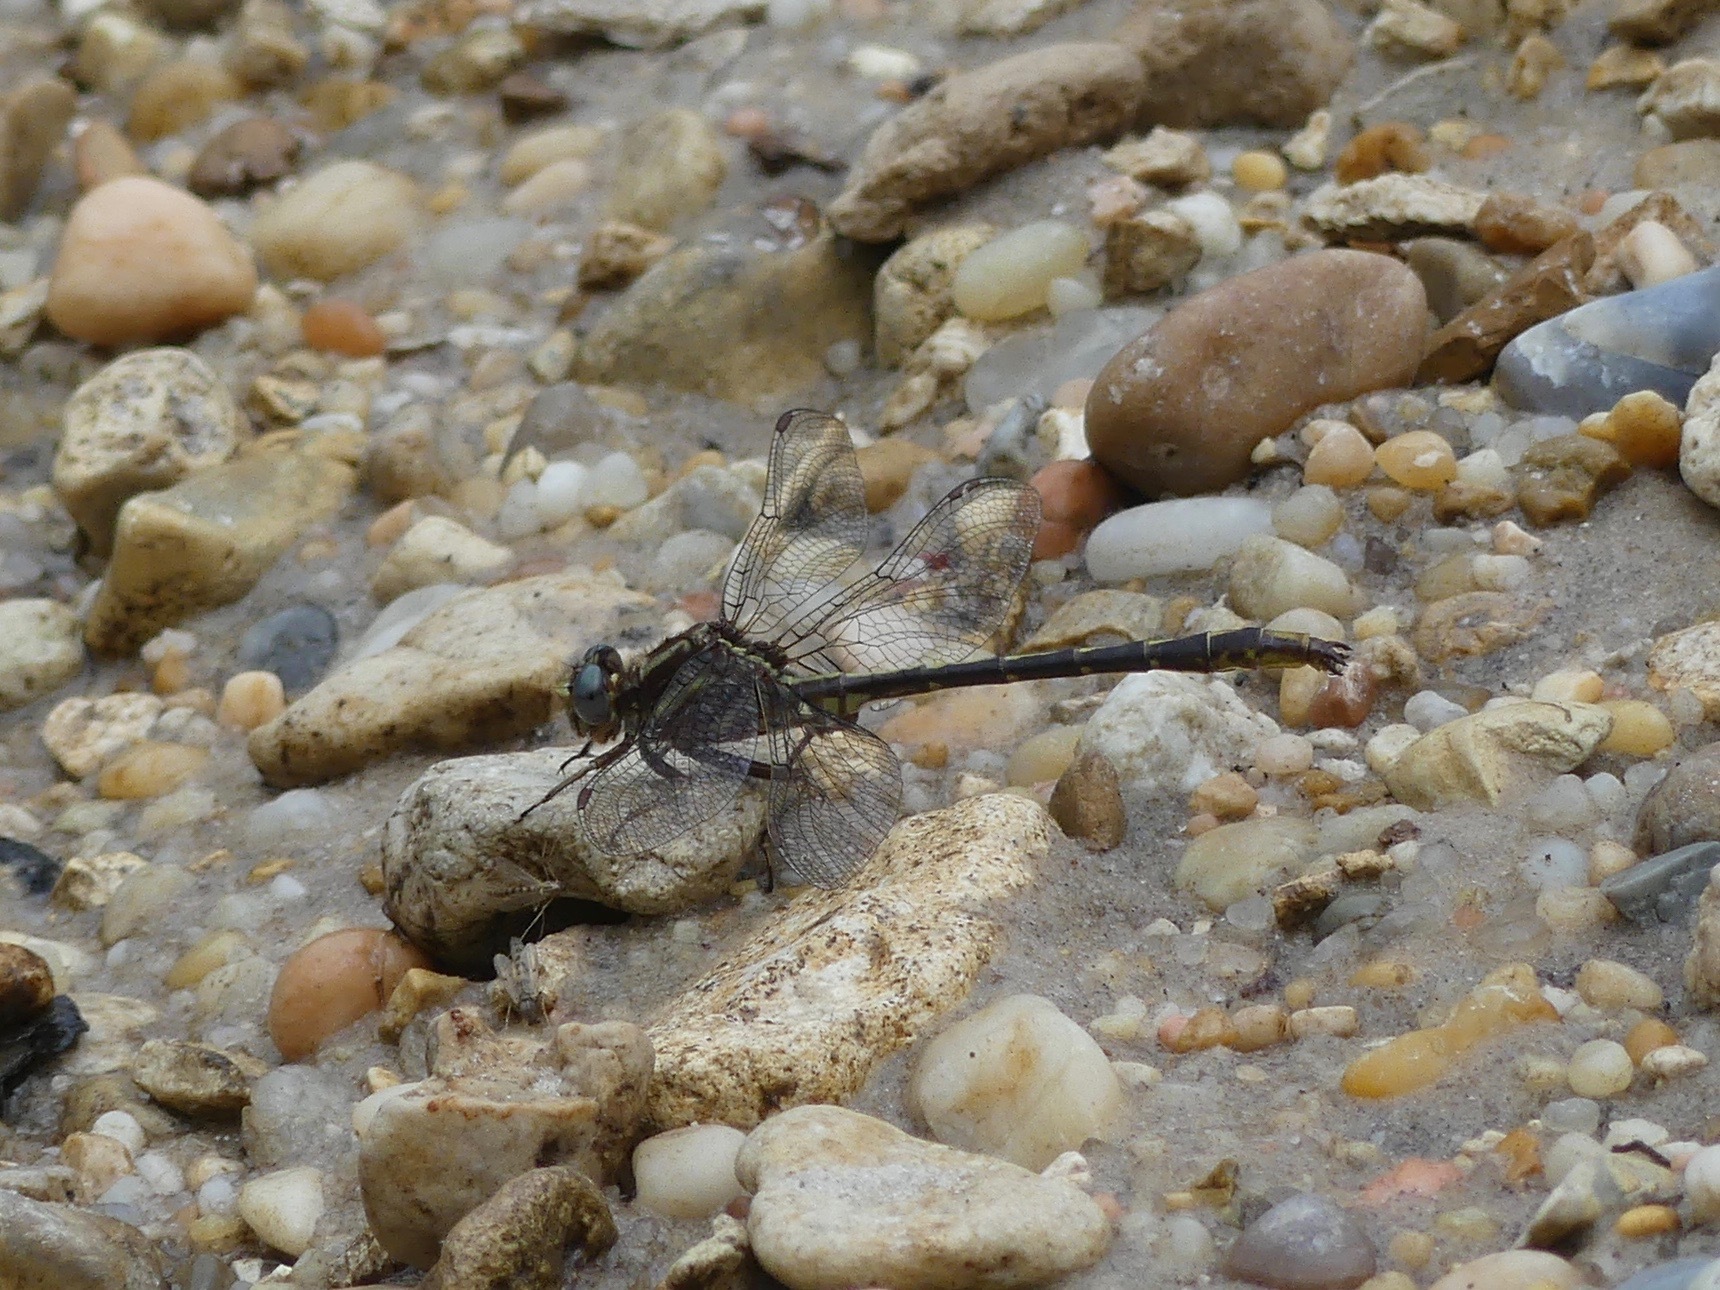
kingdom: Animalia
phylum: Arthropoda
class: Insecta
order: Odonata
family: Gomphidae
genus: Phanogomphus
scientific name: Phanogomphus lividus
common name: Ashy clubtail
